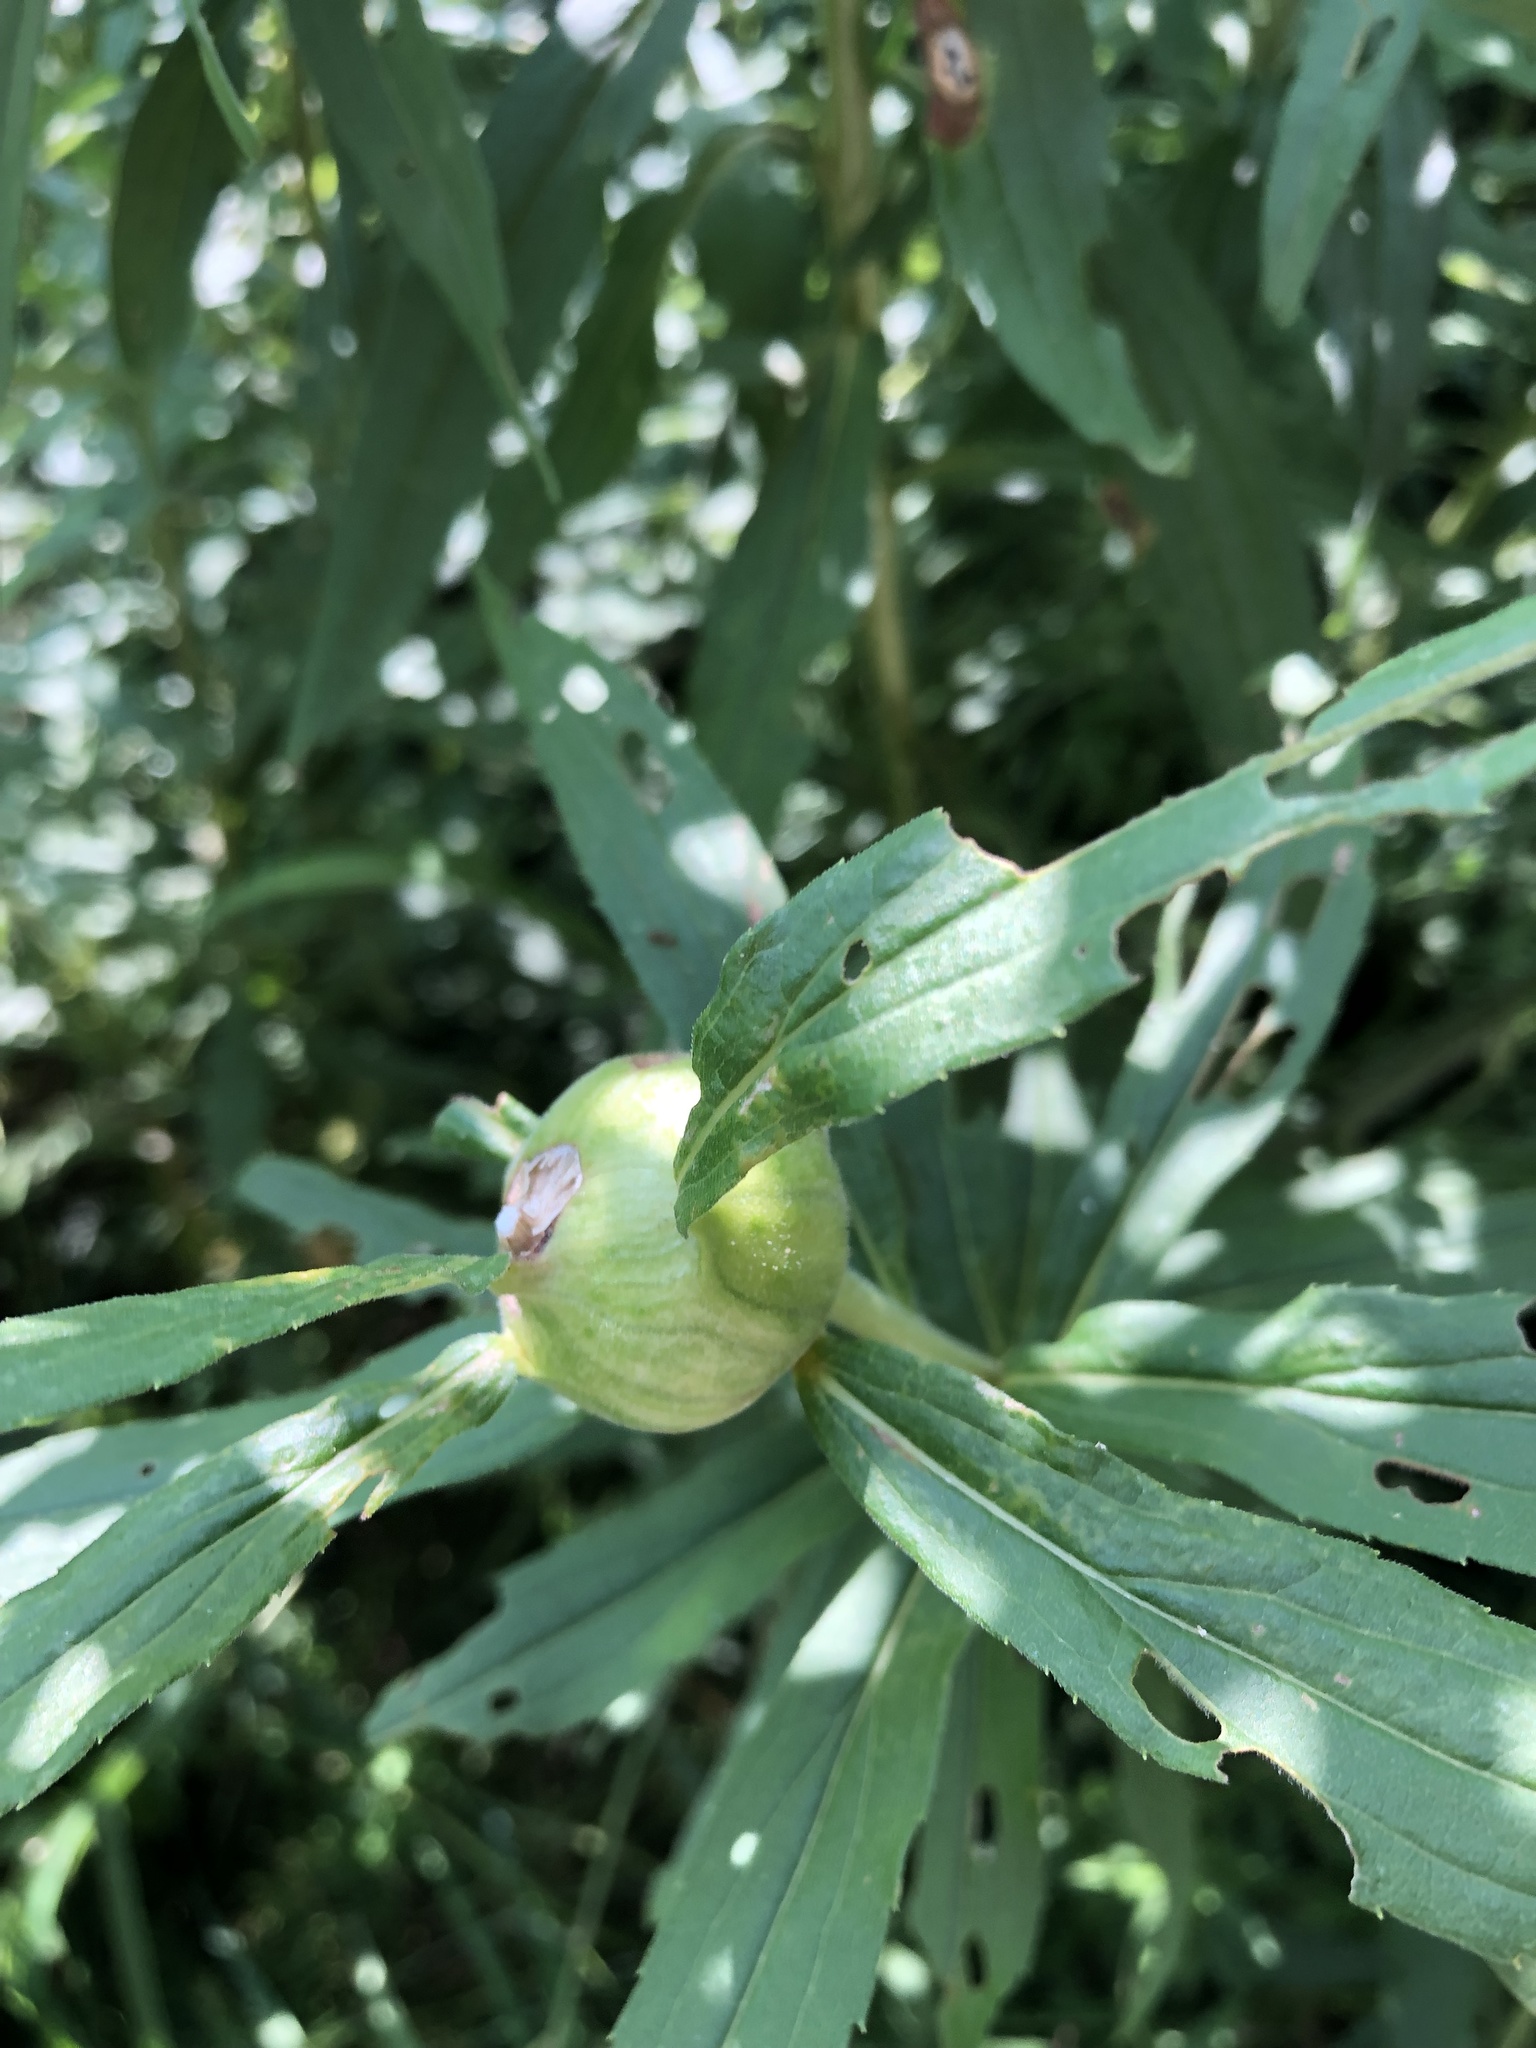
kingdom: Animalia
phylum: Arthropoda
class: Insecta
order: Diptera
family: Tephritidae
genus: Eurosta
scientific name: Eurosta solidaginis
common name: Goldenrod gall fly
